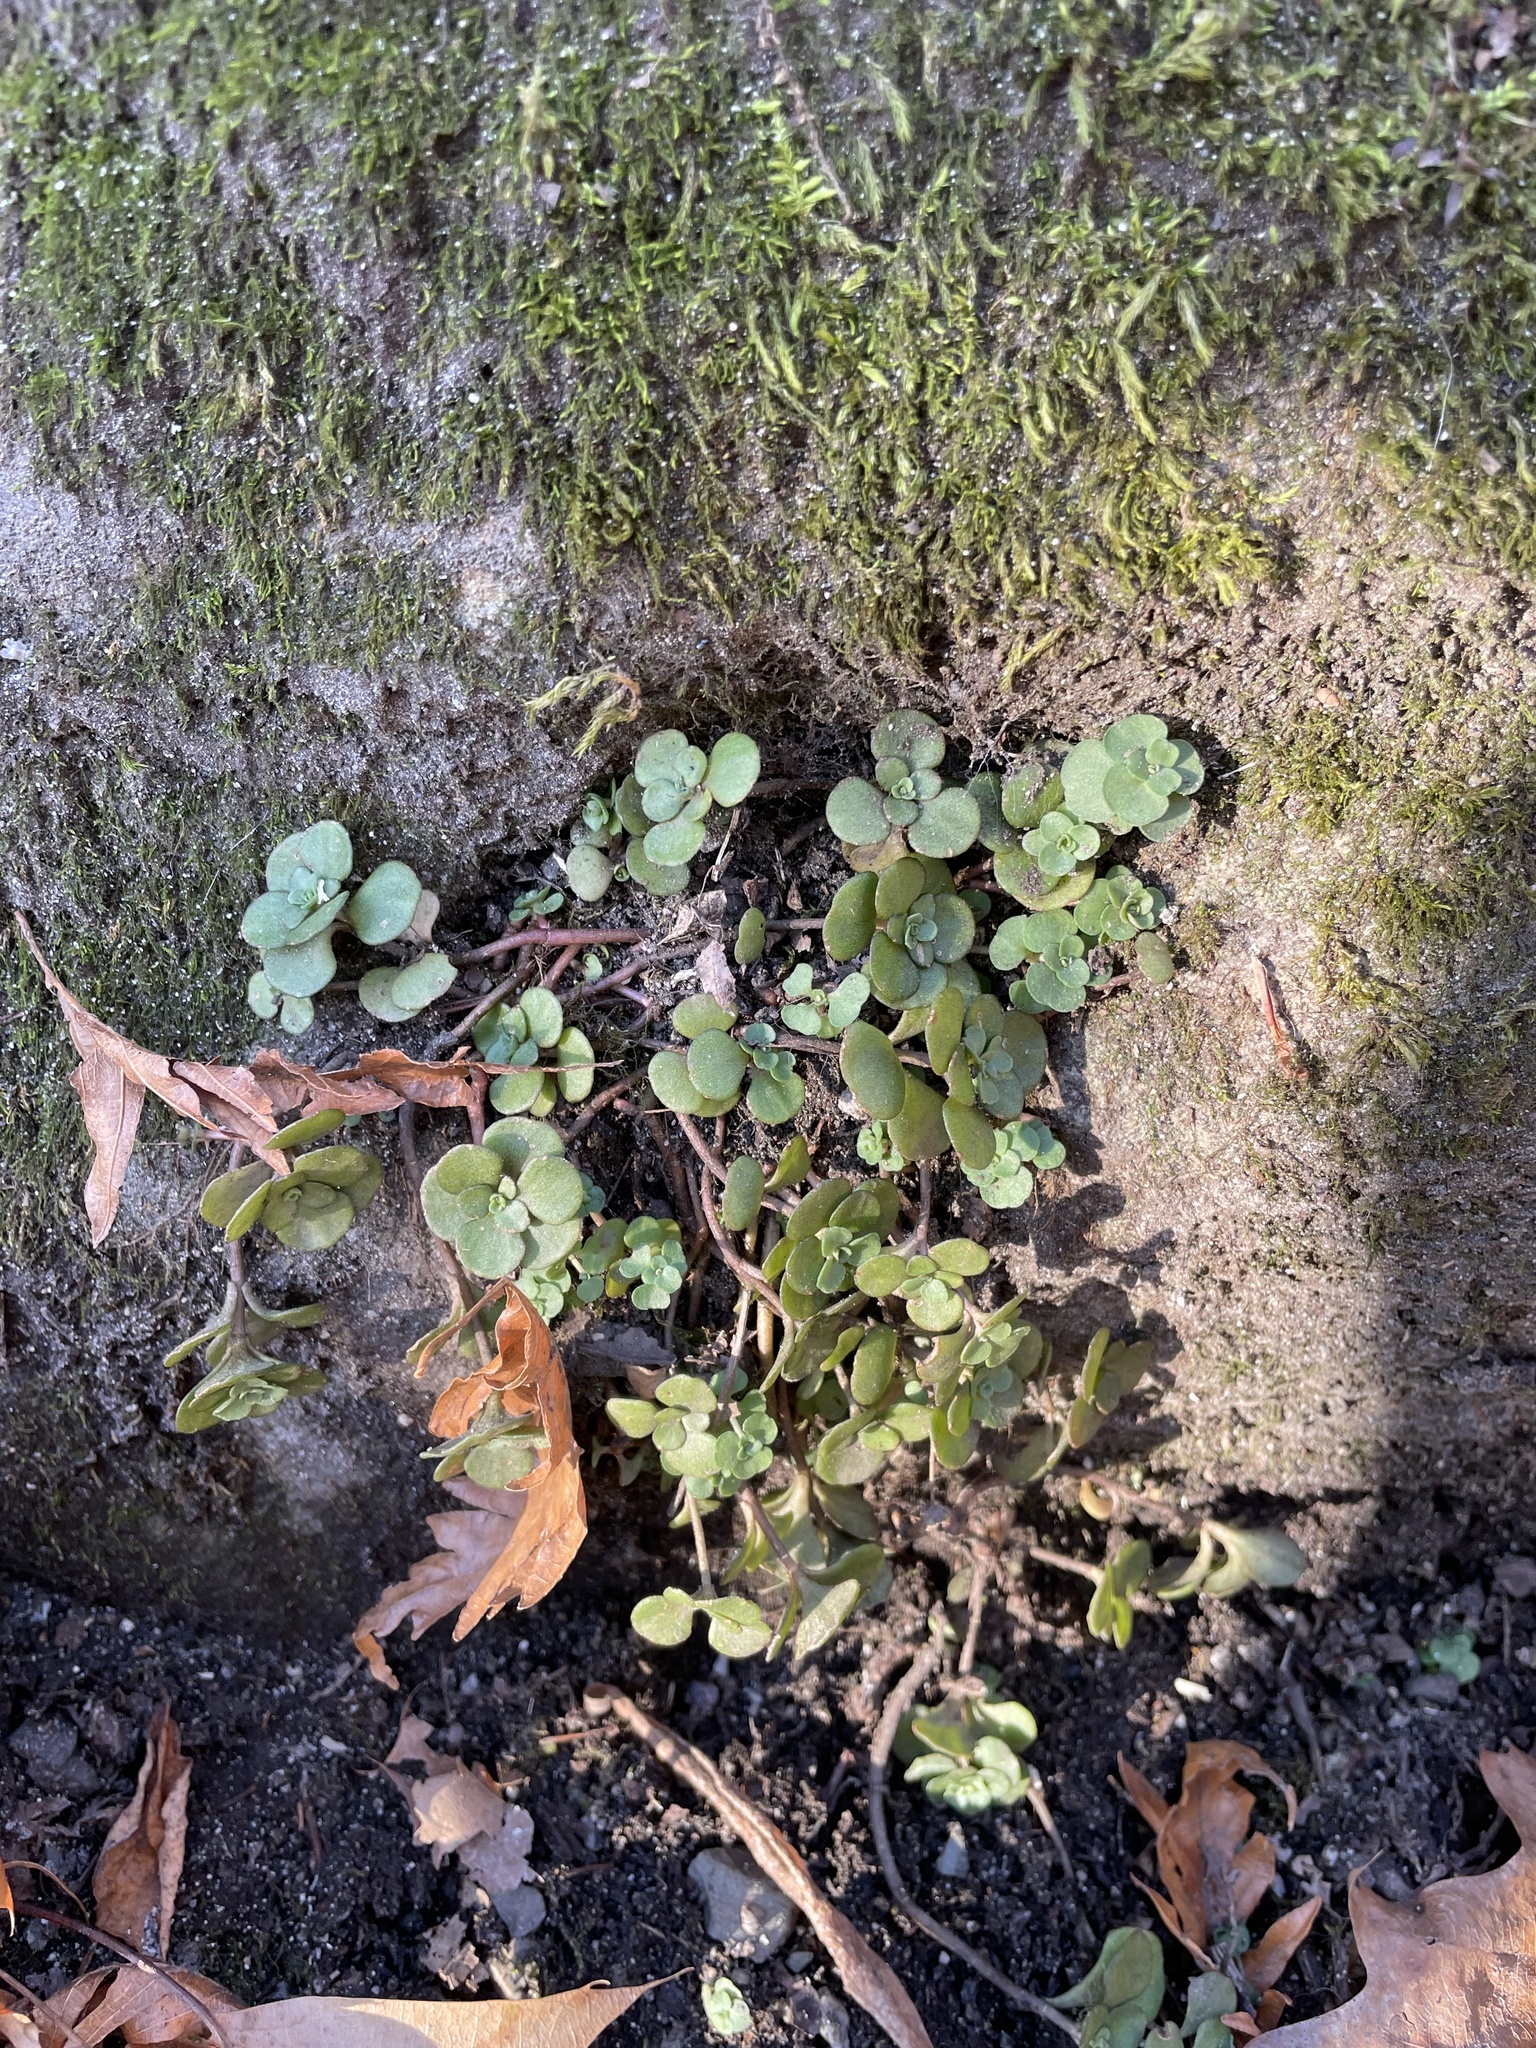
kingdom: Plantae
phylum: Tracheophyta
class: Magnoliopsida
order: Saxifragales
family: Crassulaceae
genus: Sedum
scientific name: Sedum ternatum
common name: Wild stonecrop
